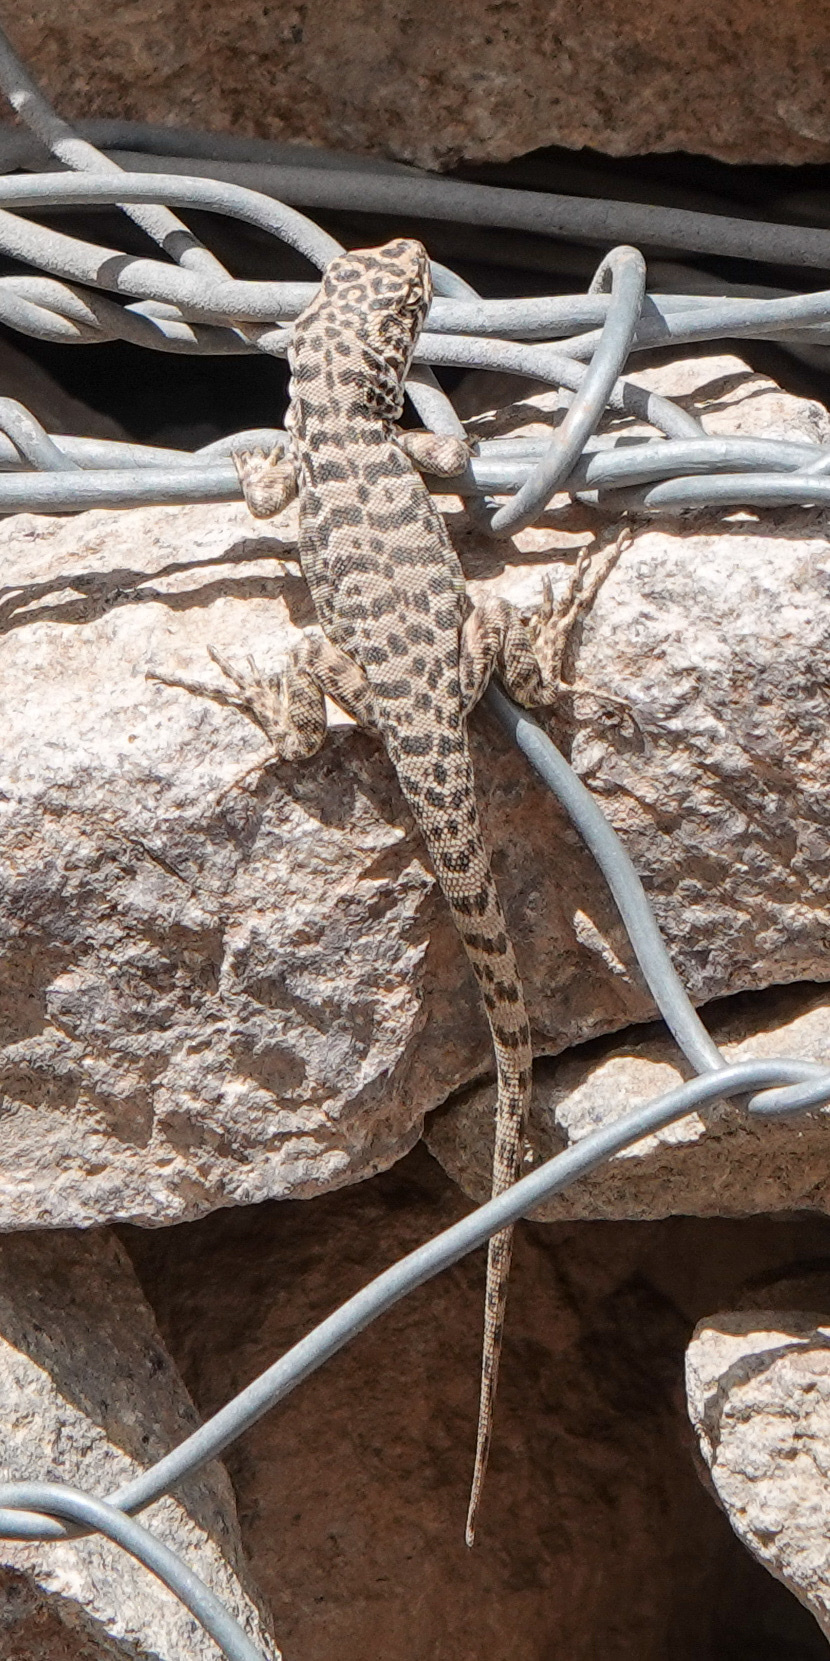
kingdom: Animalia
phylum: Chordata
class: Squamata
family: Liolaemidae
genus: Liolaemus
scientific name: Liolaemus leopardinus
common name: Leopard tree iguana
